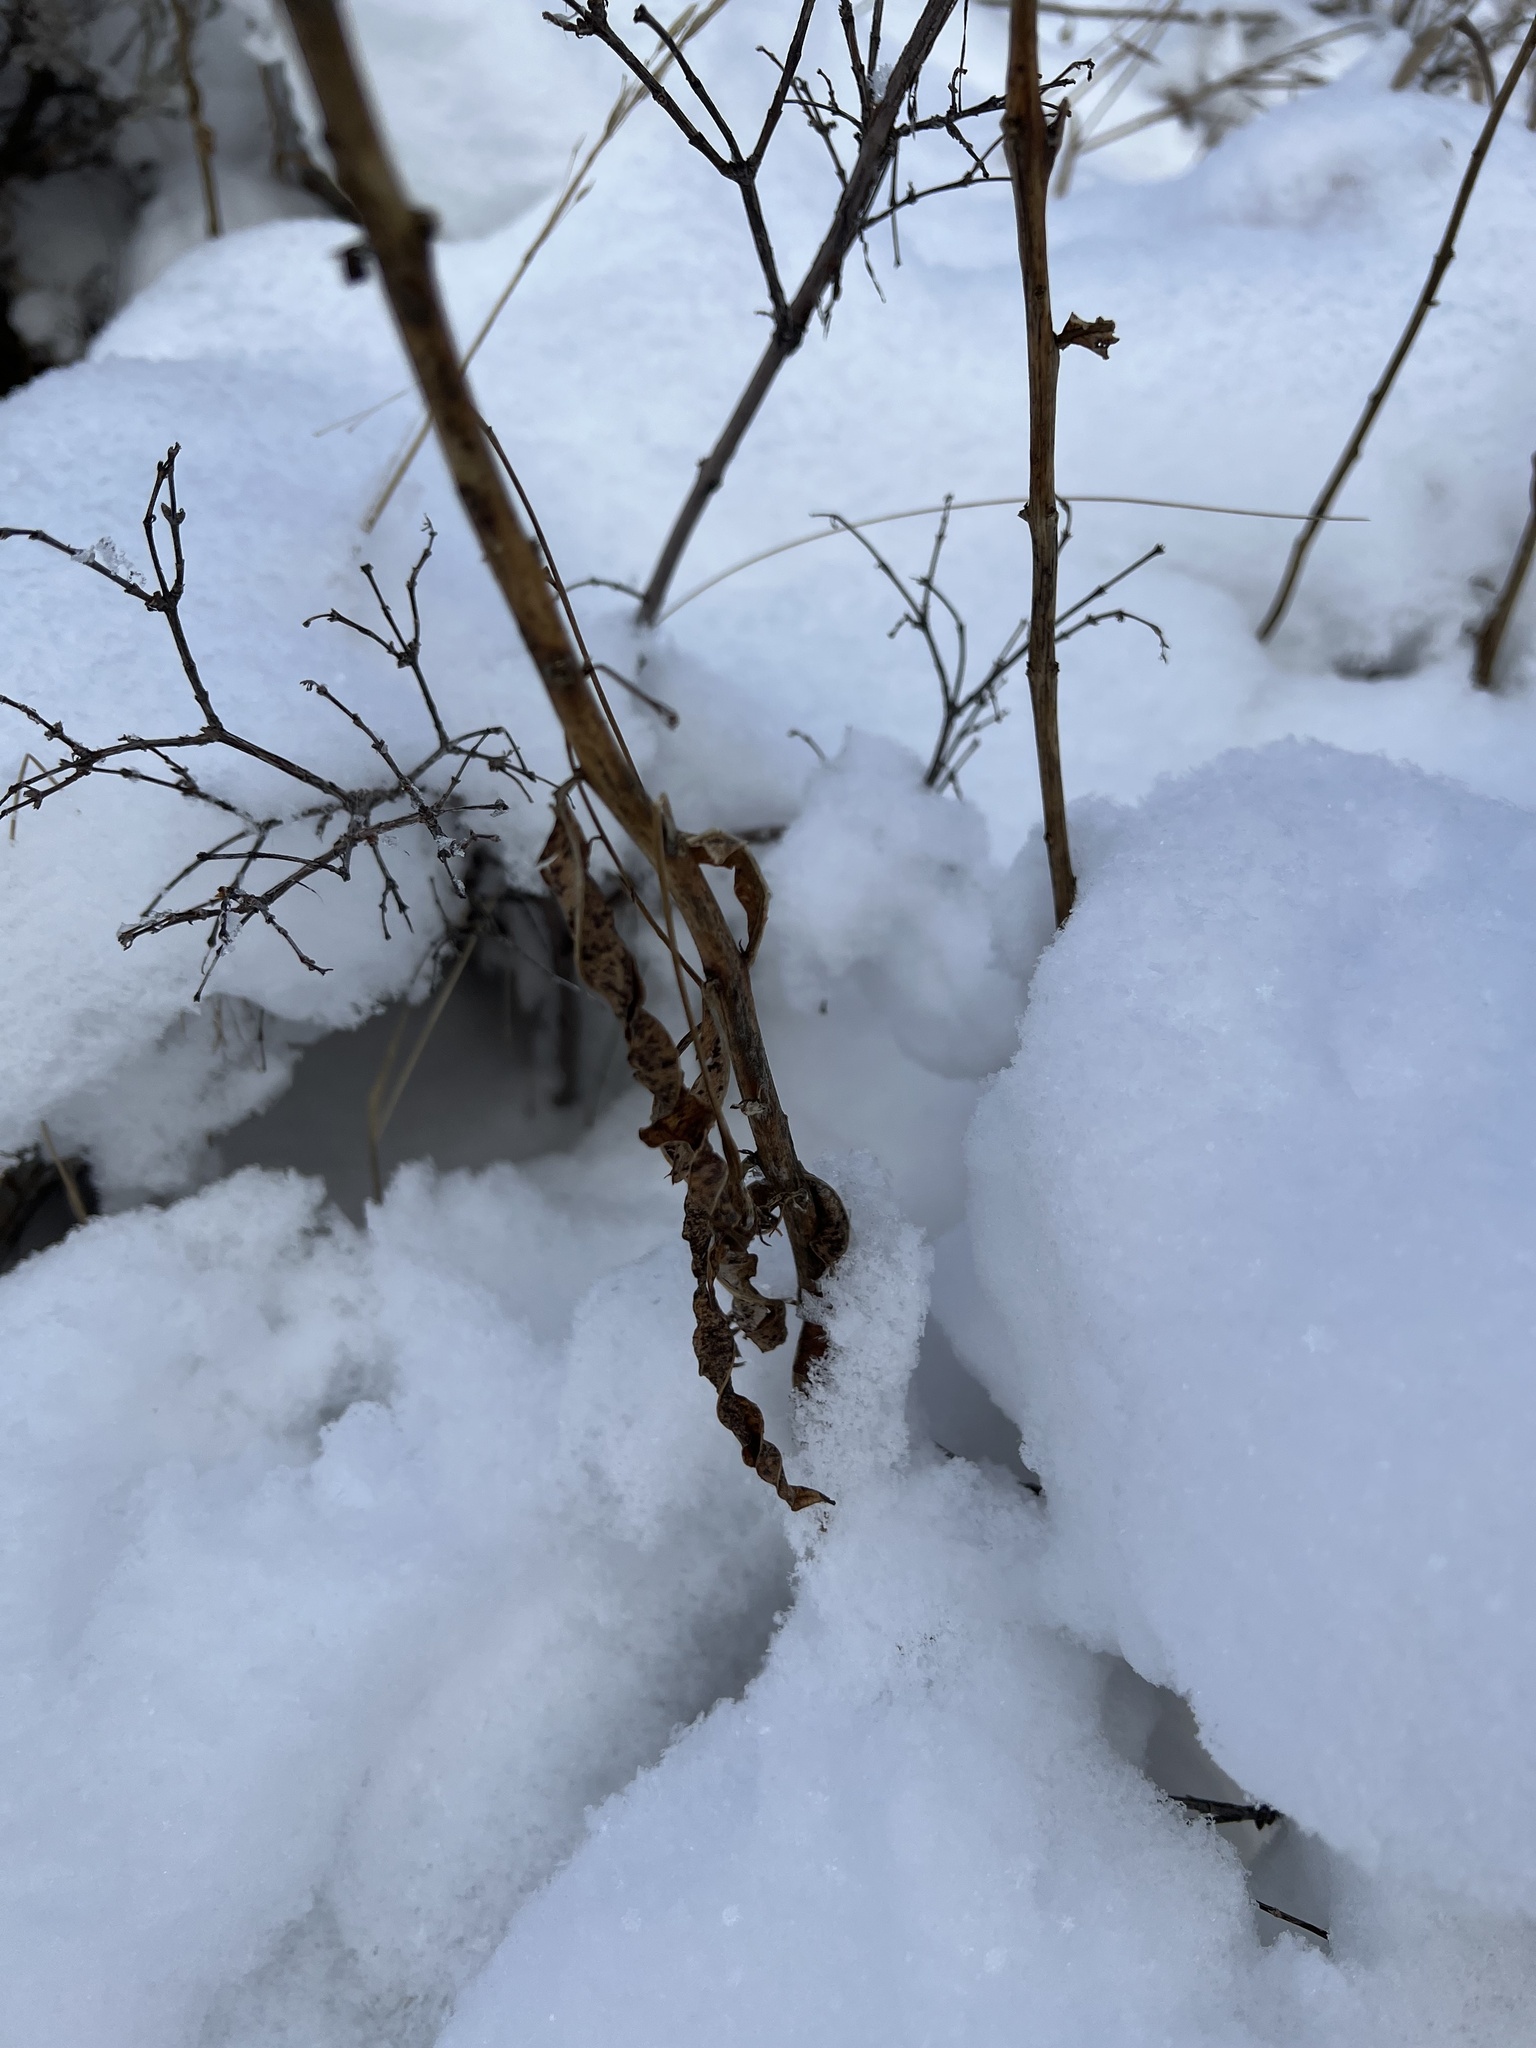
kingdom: Plantae
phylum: Tracheophyta
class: Magnoliopsida
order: Myrtales
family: Onagraceae
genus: Chamaenerion
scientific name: Chamaenerion angustifolium
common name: Fireweed
